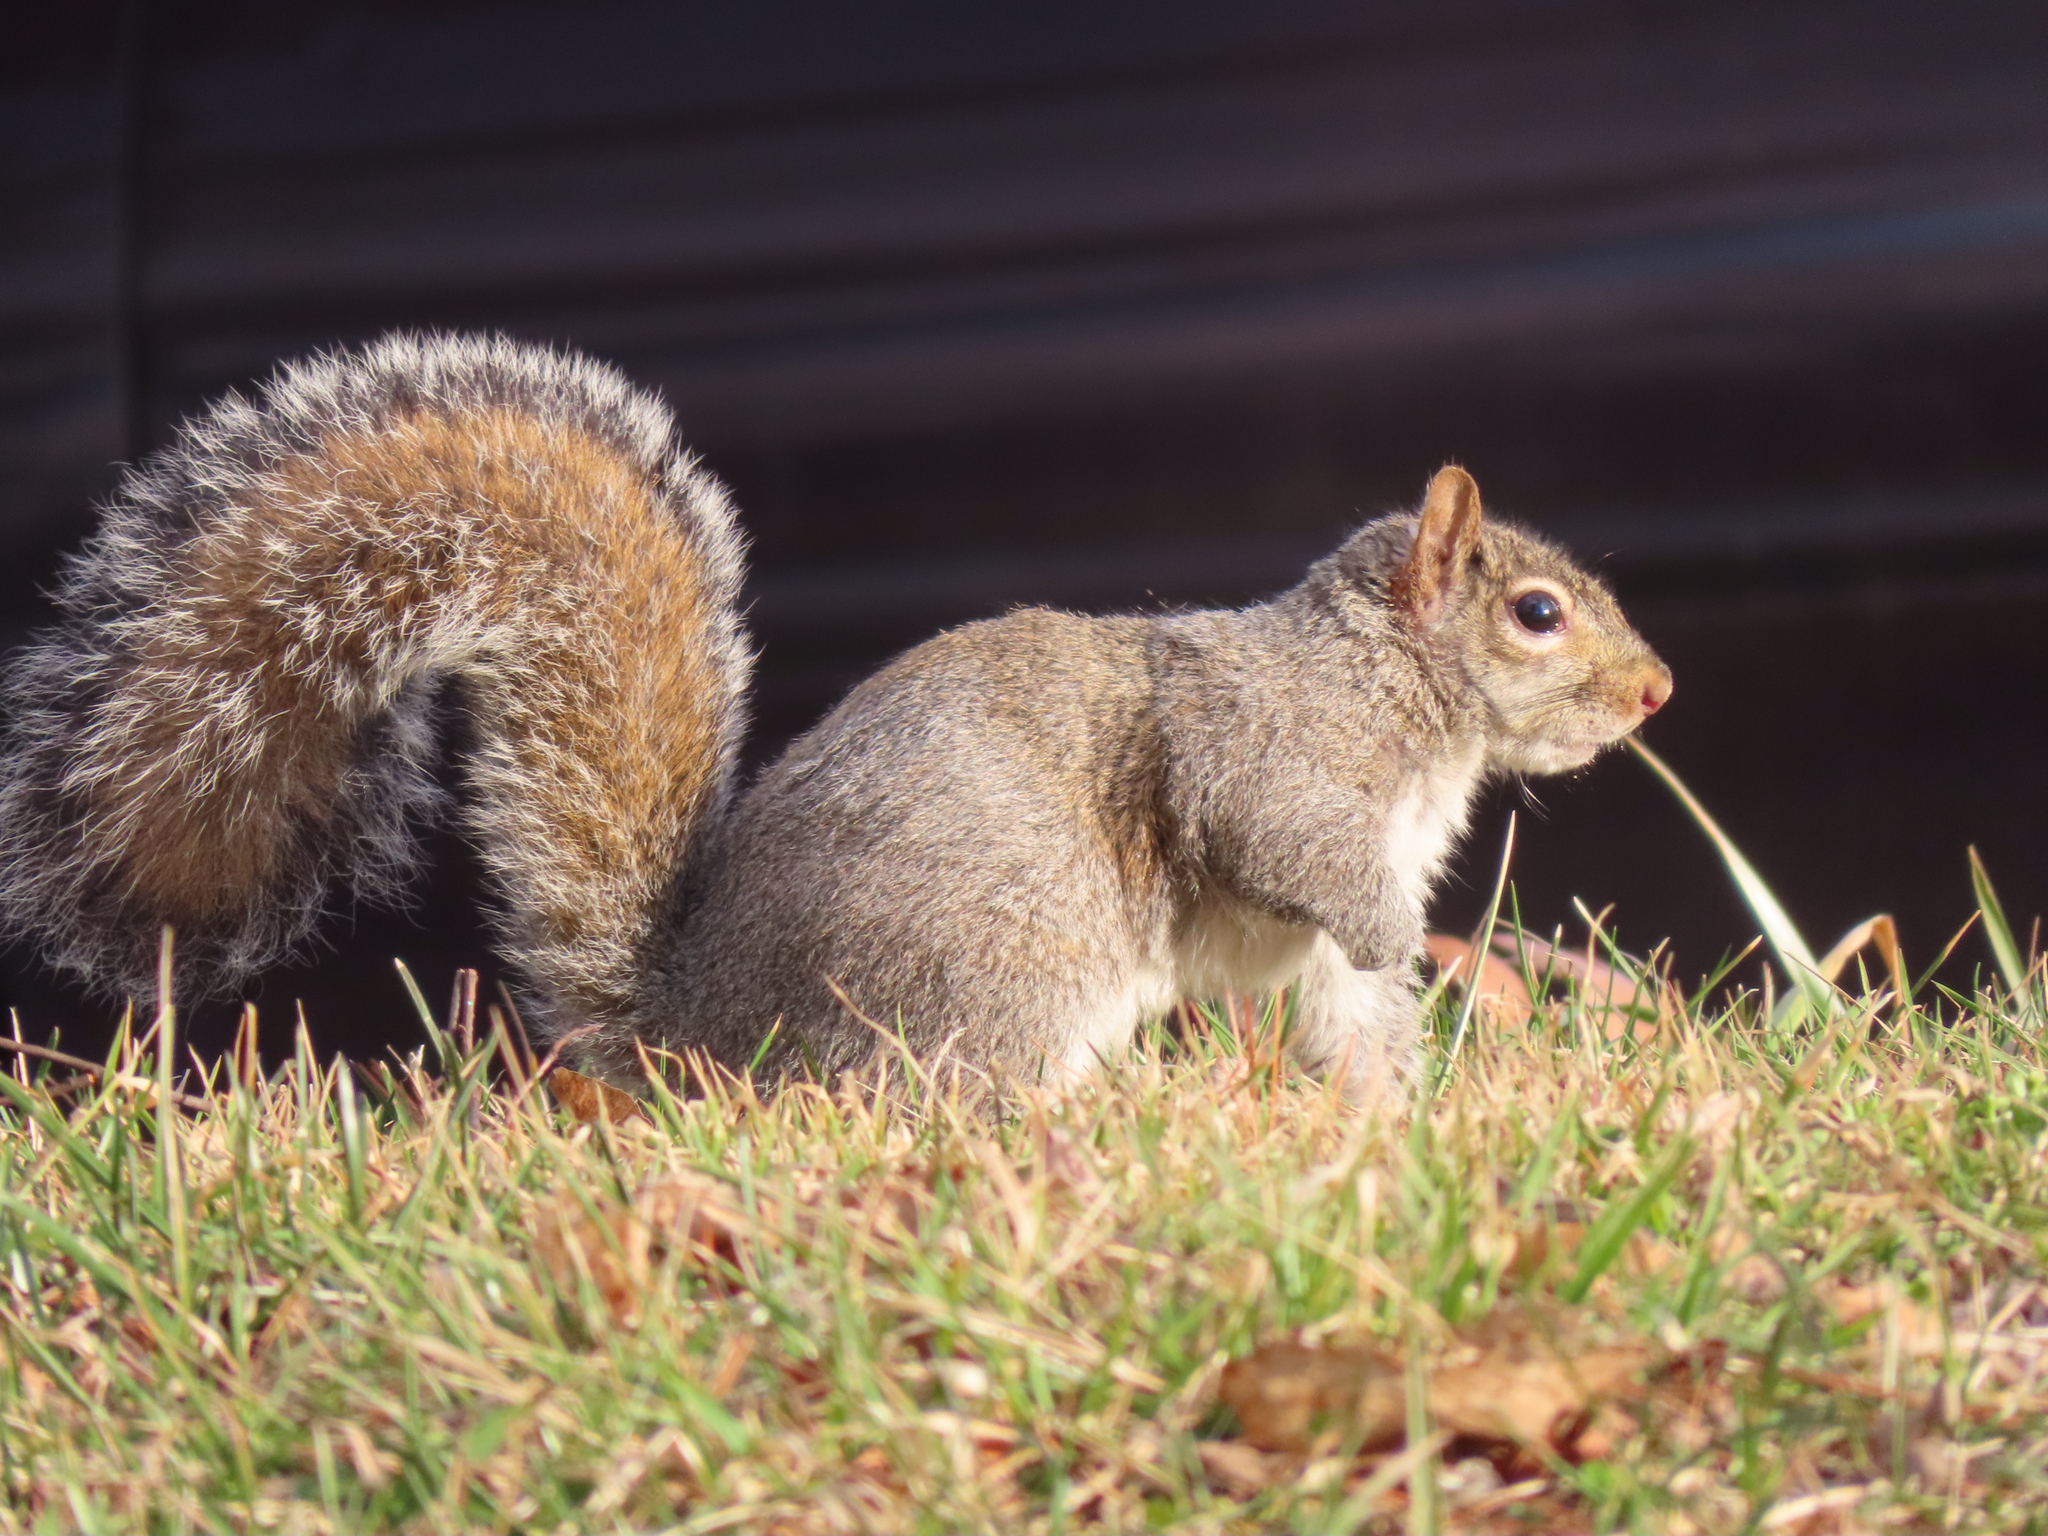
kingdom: Animalia
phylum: Chordata
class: Mammalia
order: Rodentia
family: Sciuridae
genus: Sciurus
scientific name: Sciurus carolinensis
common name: Eastern gray squirrel
